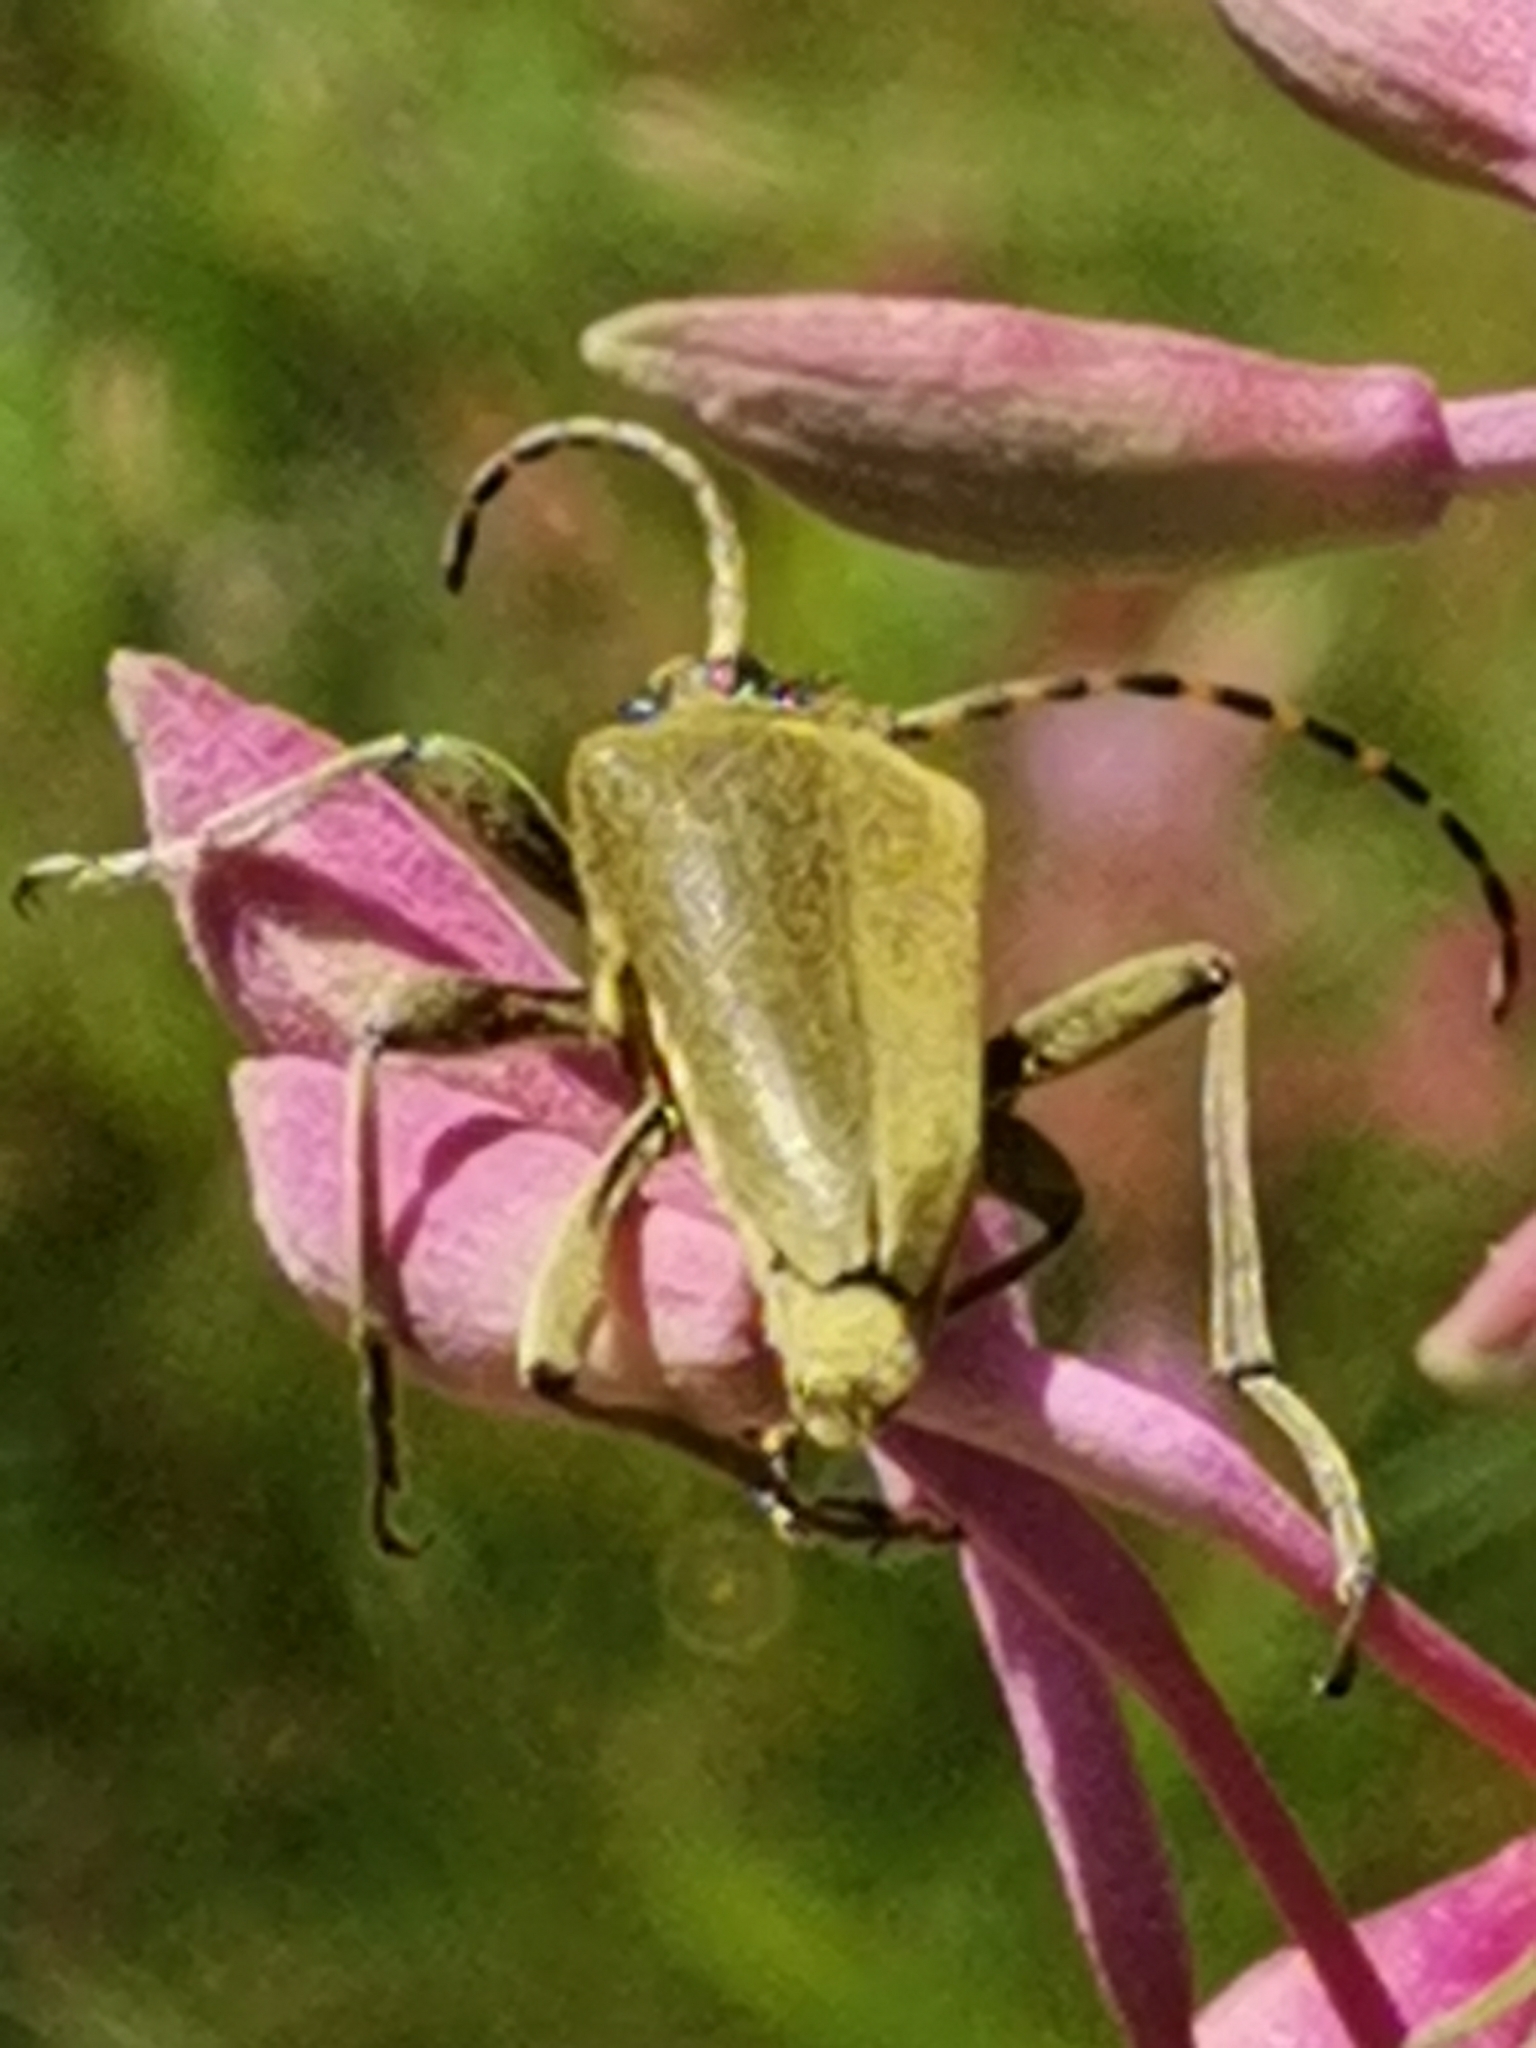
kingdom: Animalia
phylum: Arthropoda
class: Insecta
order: Coleoptera
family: Cerambycidae
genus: Lepturobosca
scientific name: Lepturobosca virens
